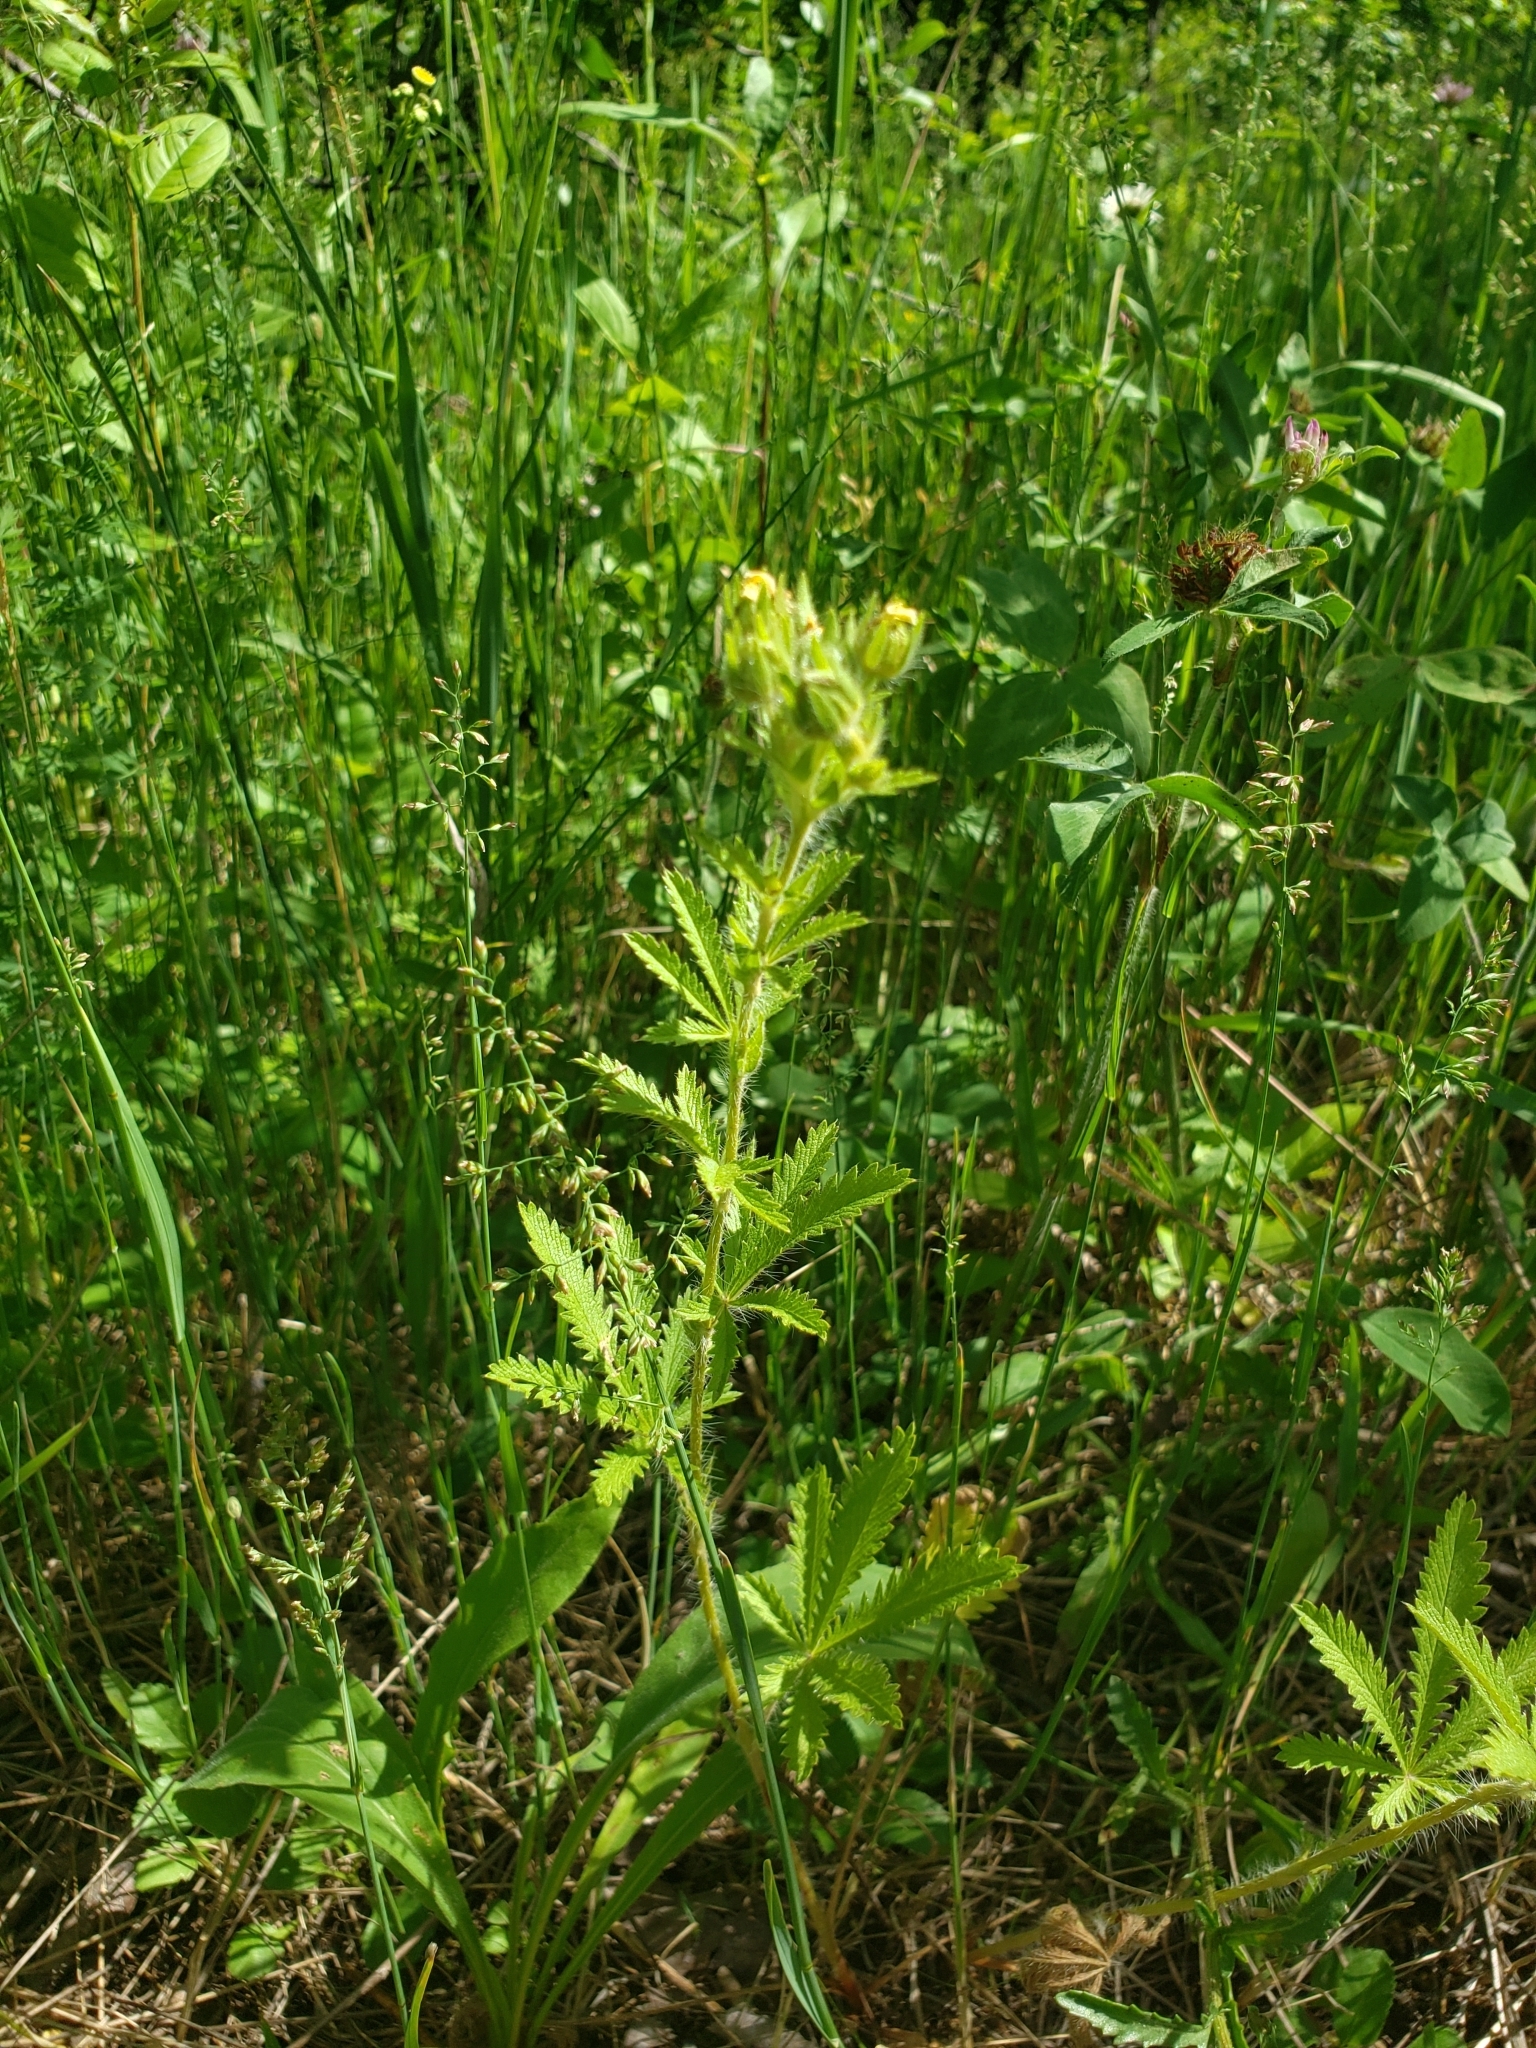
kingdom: Plantae
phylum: Tracheophyta
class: Magnoliopsida
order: Rosales
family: Rosaceae
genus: Potentilla
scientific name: Potentilla recta
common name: Sulphur cinquefoil
